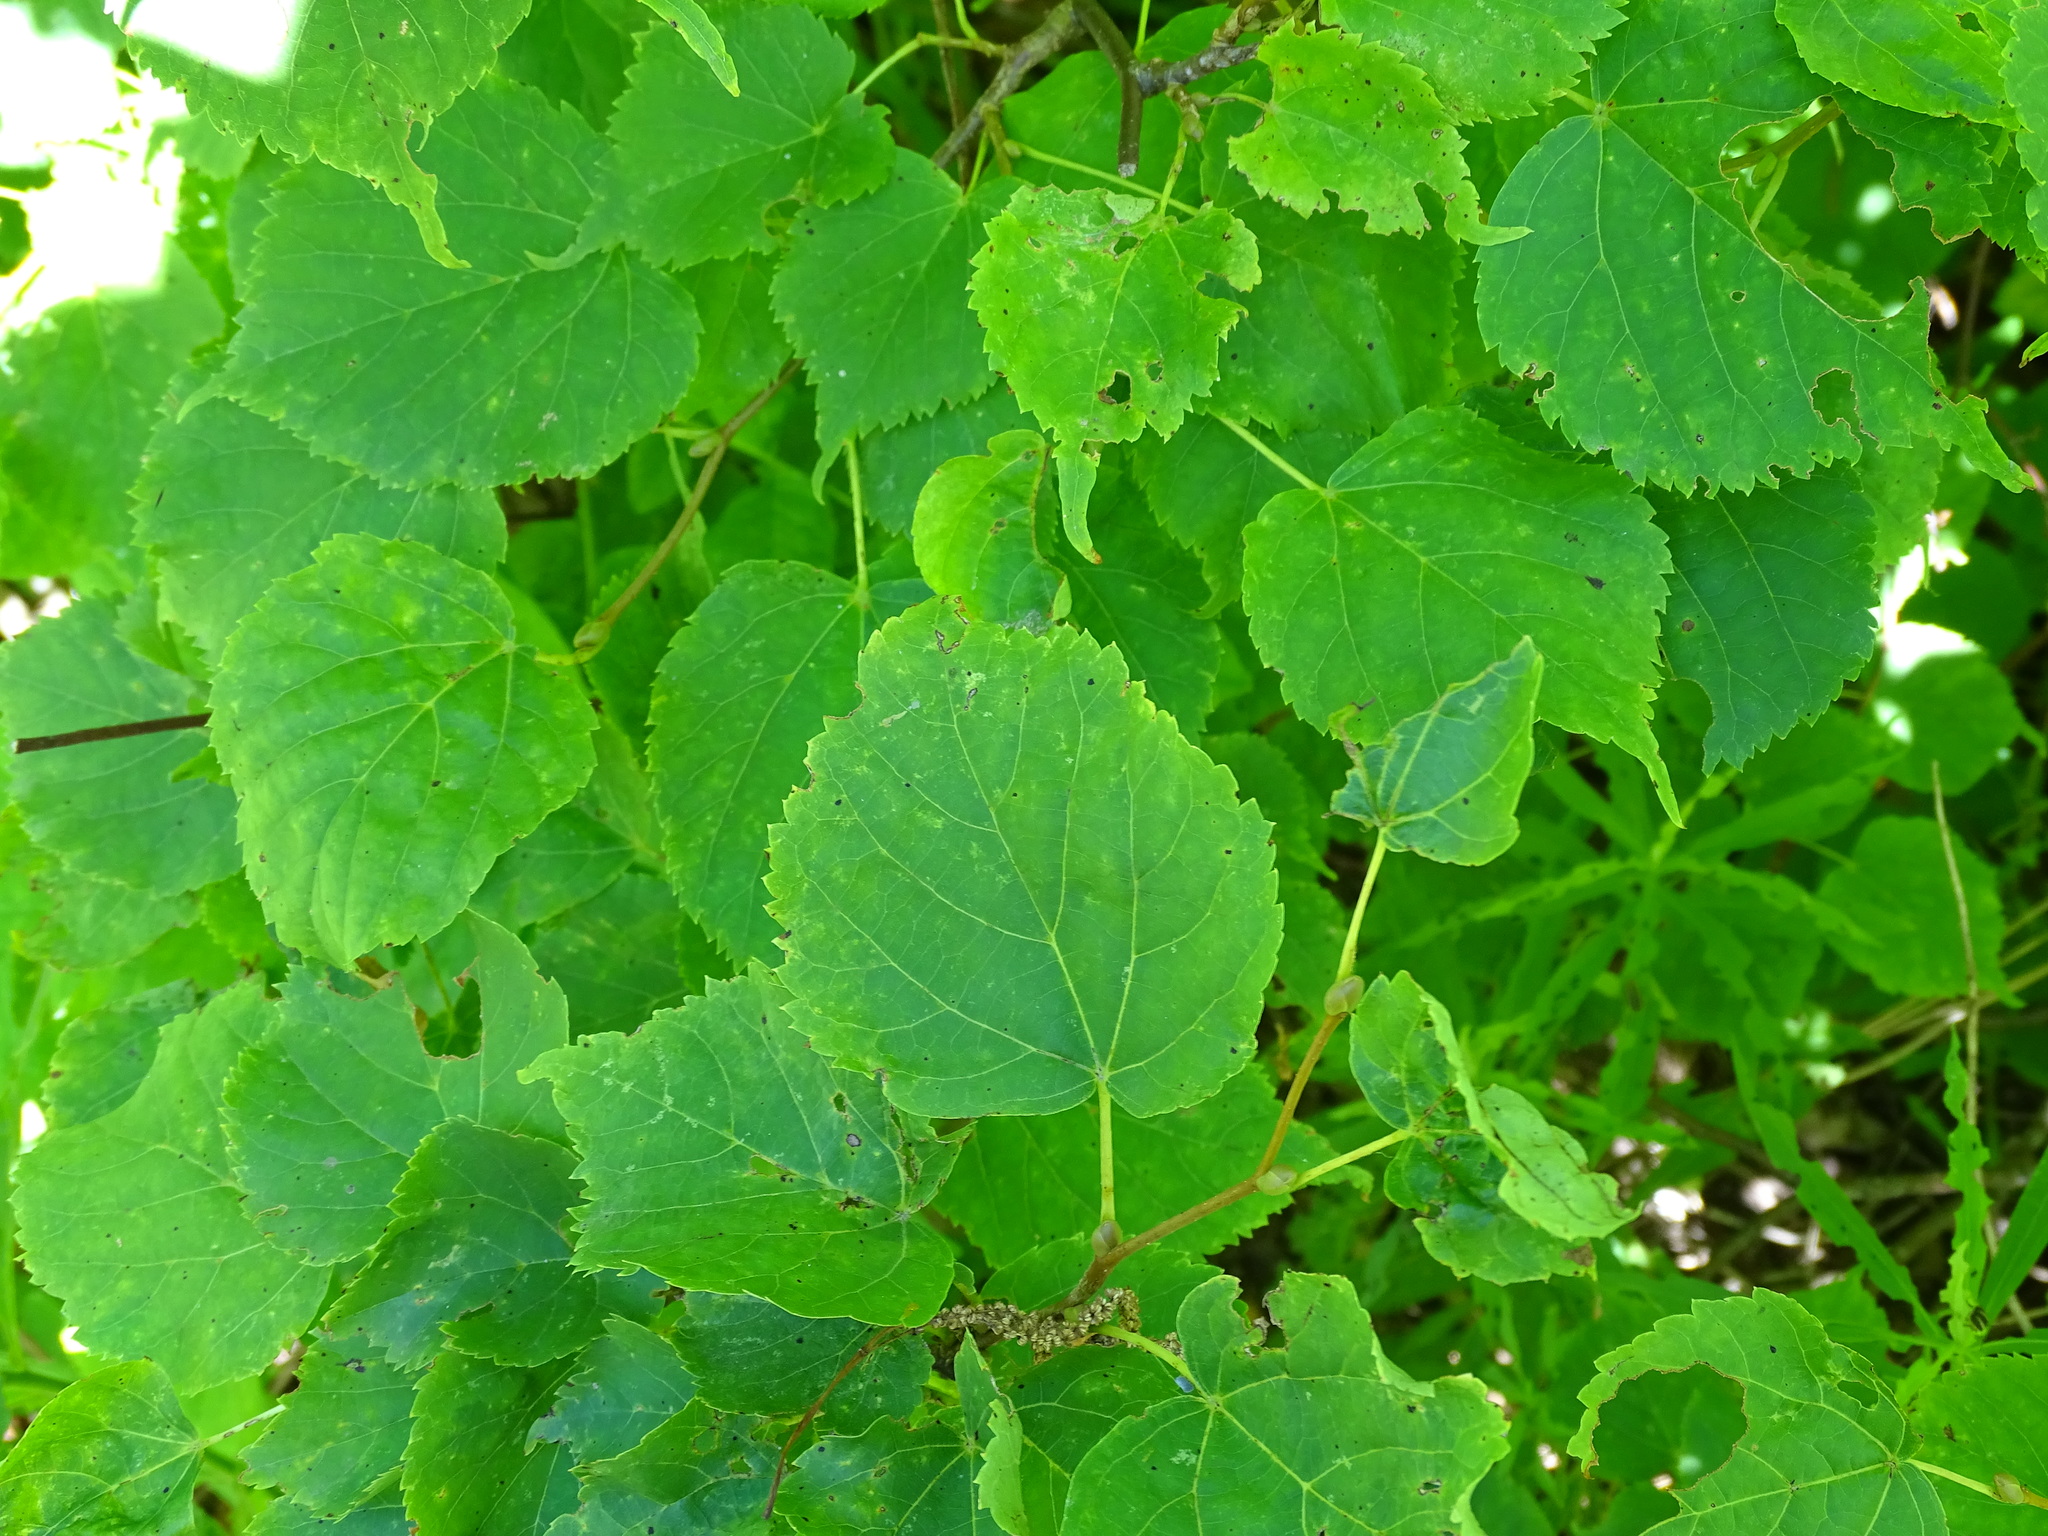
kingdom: Plantae
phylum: Tracheophyta
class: Magnoliopsida
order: Malvales
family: Malvaceae
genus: Tilia
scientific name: Tilia cordata
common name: Small-leaved lime
